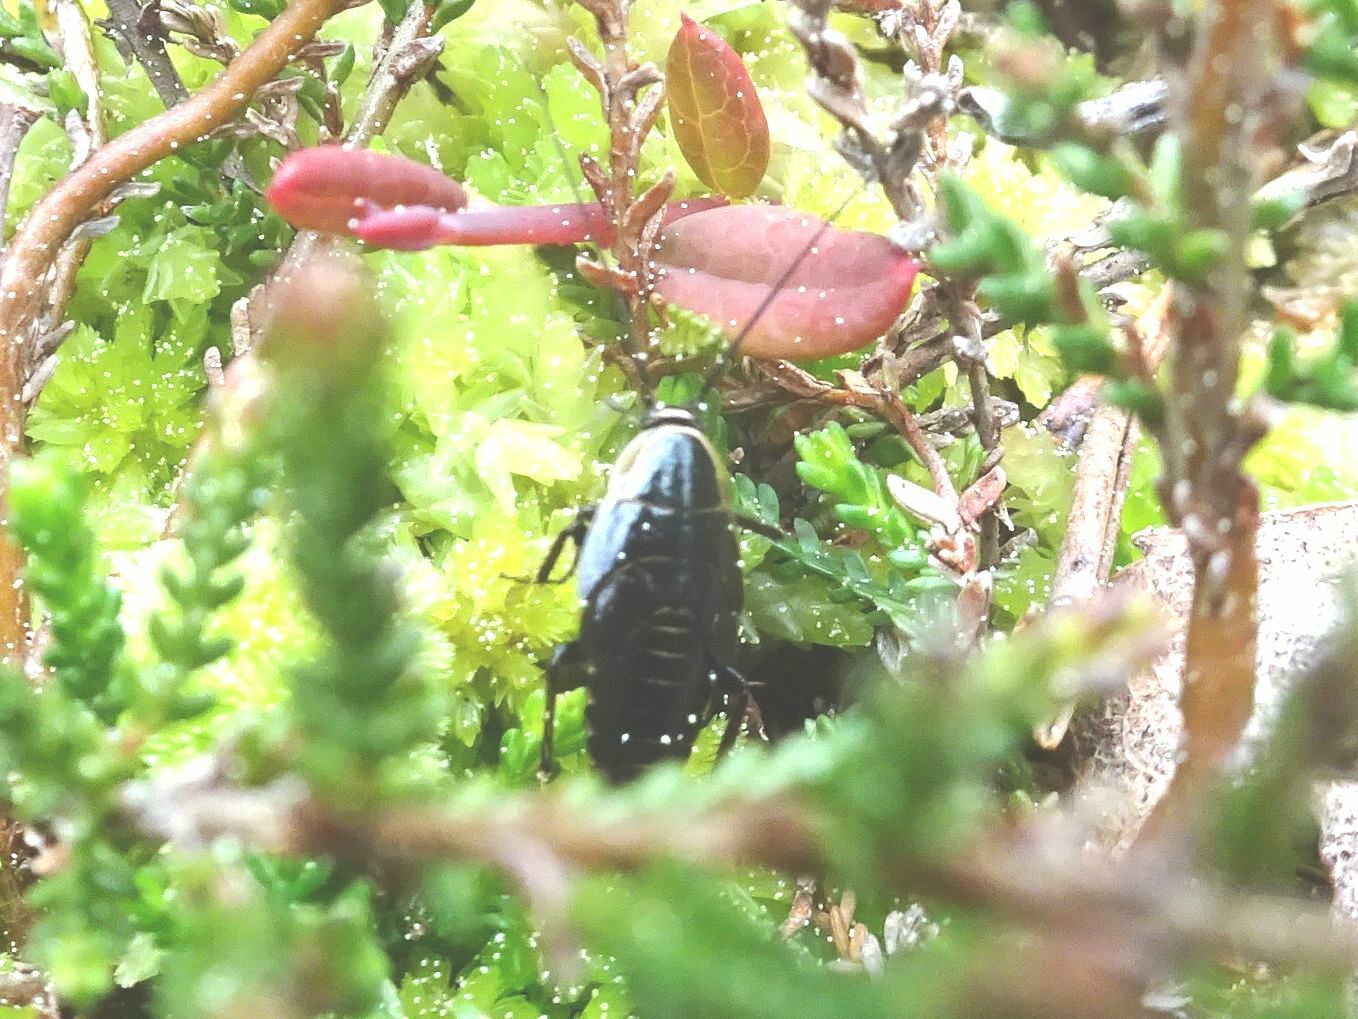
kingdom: Animalia
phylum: Arthropoda
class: Insecta
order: Blattodea
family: Ectobiidae
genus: Ectobius
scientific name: Ectobius sylvestris
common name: Forest cockroach
